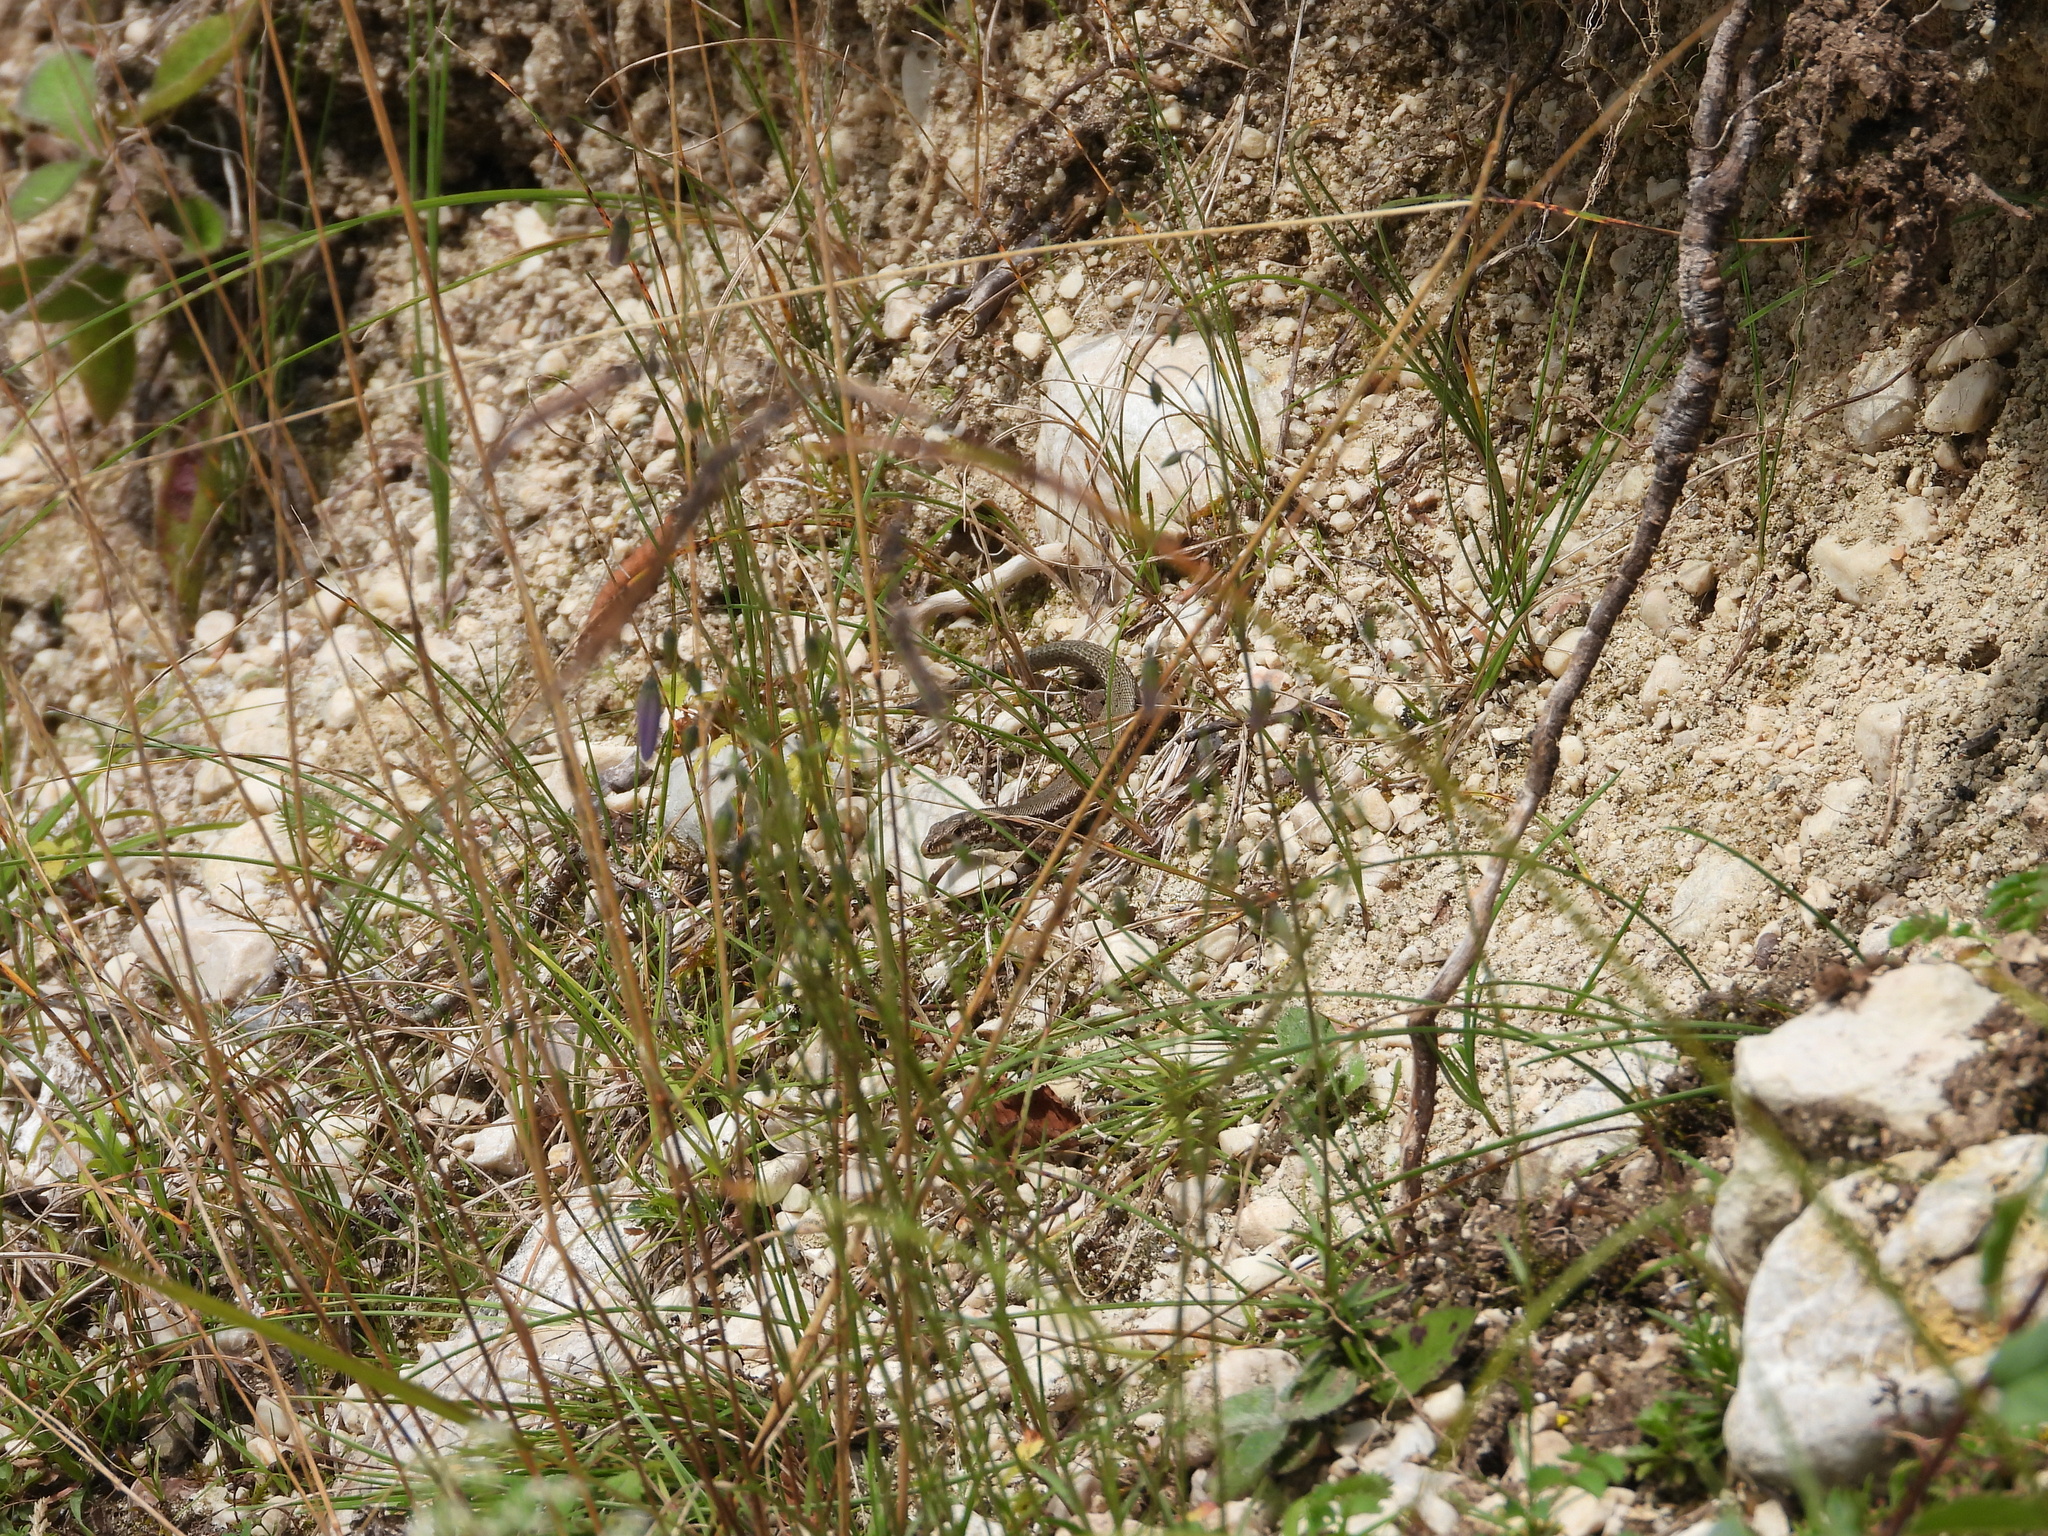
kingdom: Animalia
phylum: Chordata
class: Squamata
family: Lacertidae
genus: Podarcis
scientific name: Podarcis muralis
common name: Common wall lizard
